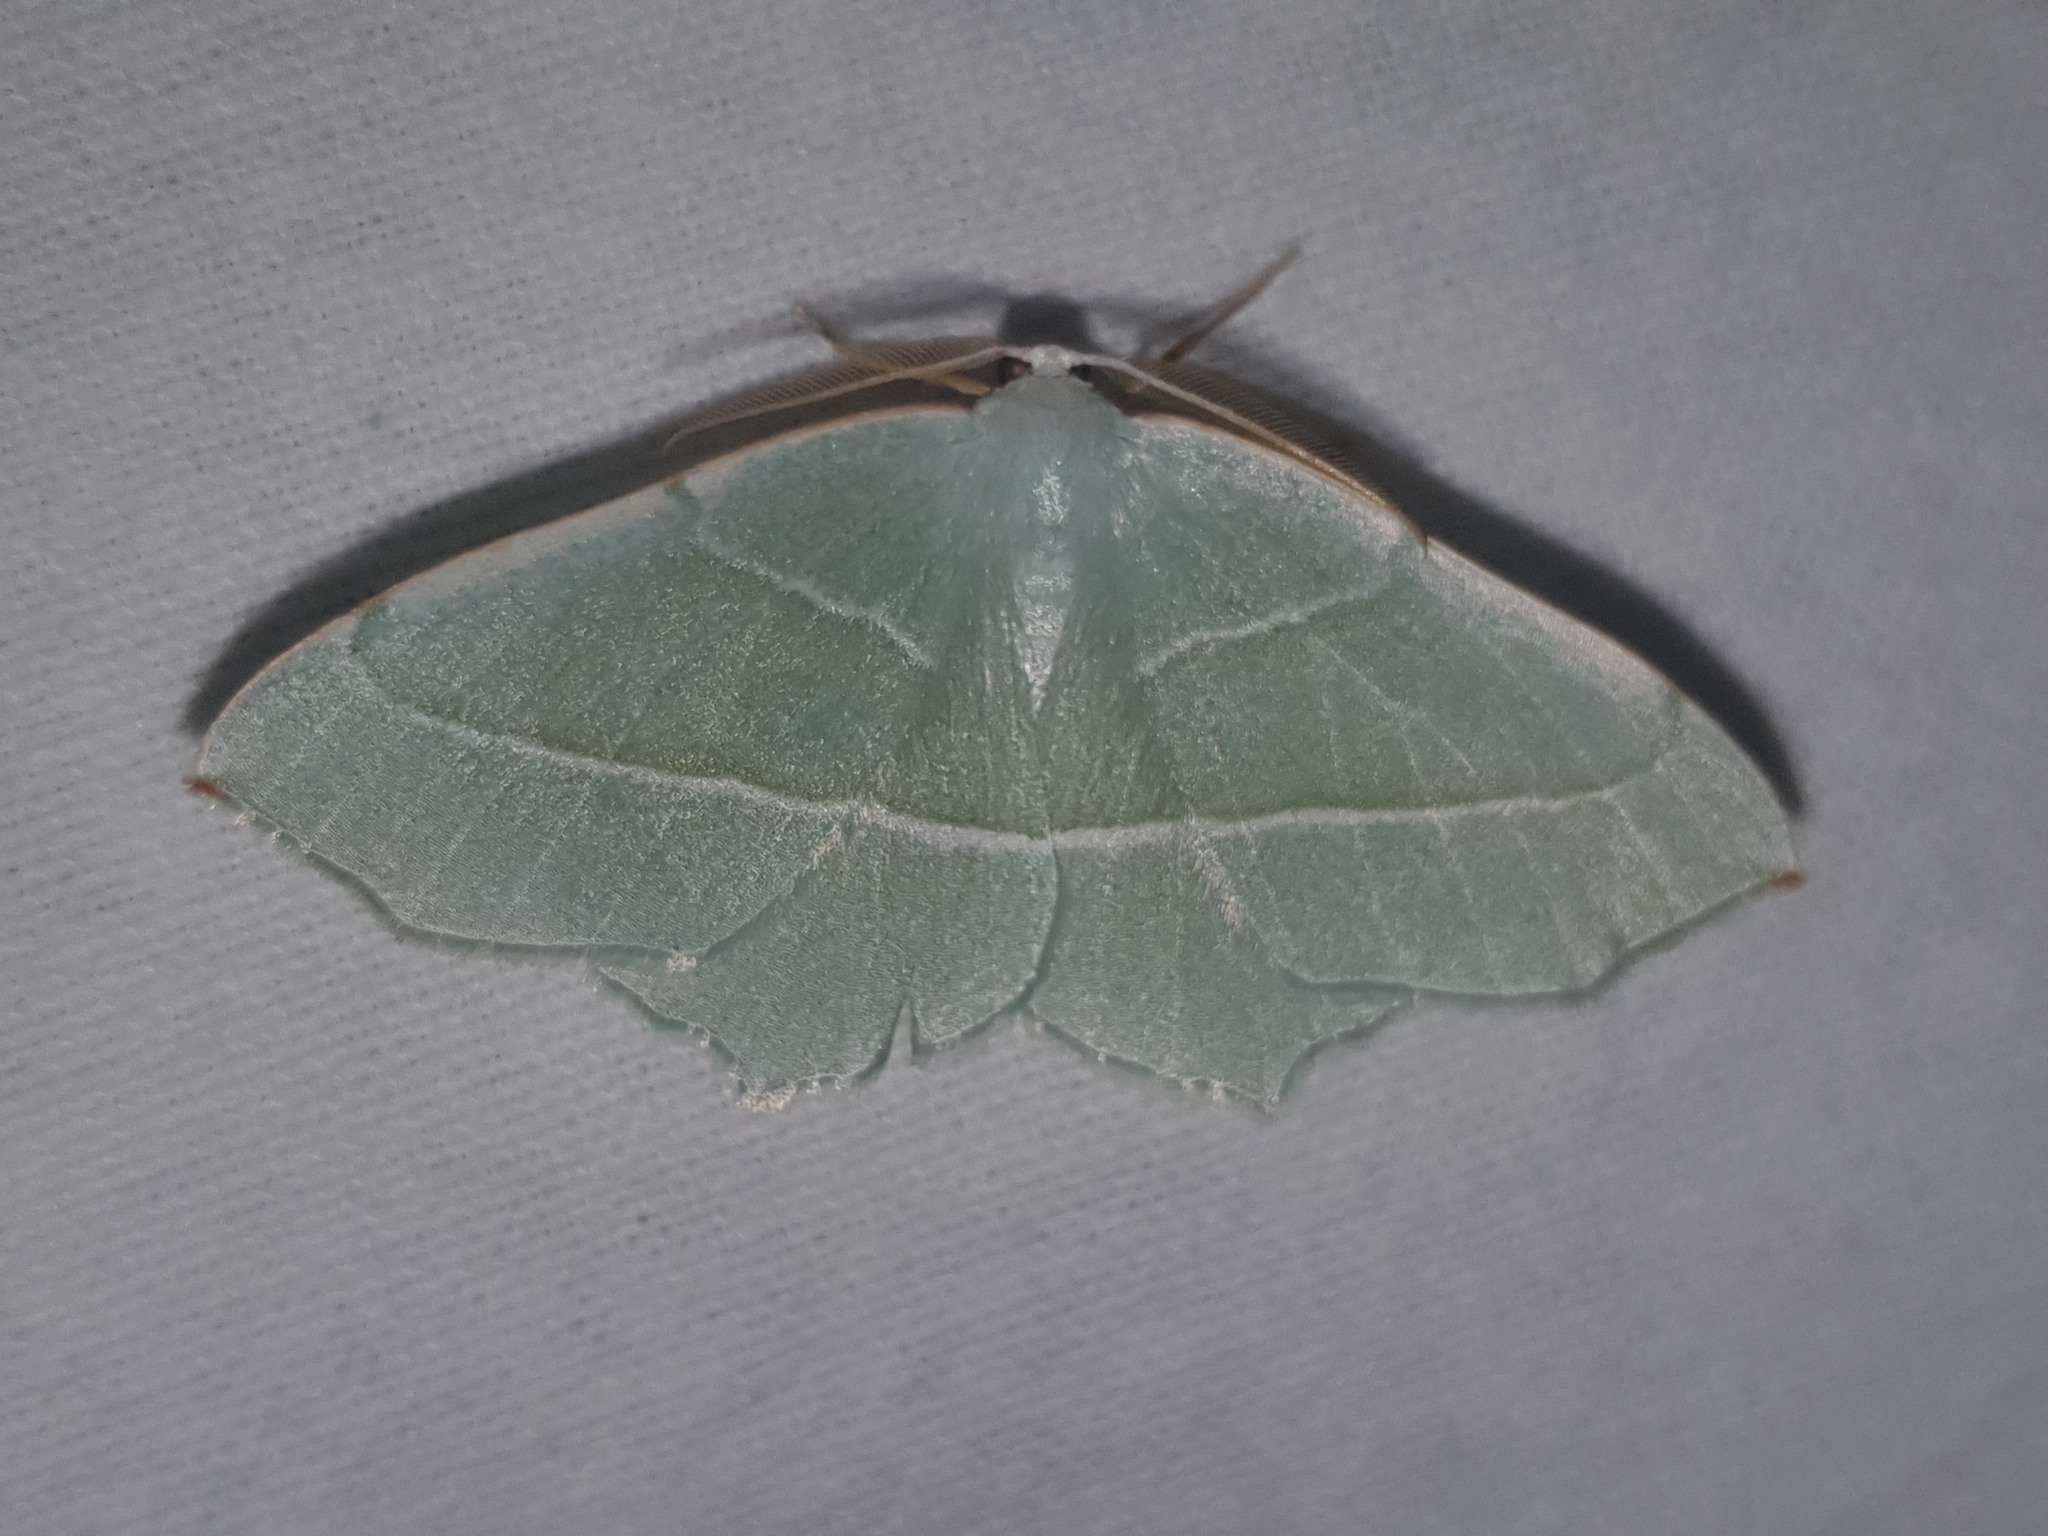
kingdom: Animalia
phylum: Arthropoda
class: Insecta
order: Lepidoptera
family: Geometridae
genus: Campaea
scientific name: Campaea margaritaria
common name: Light emerald
